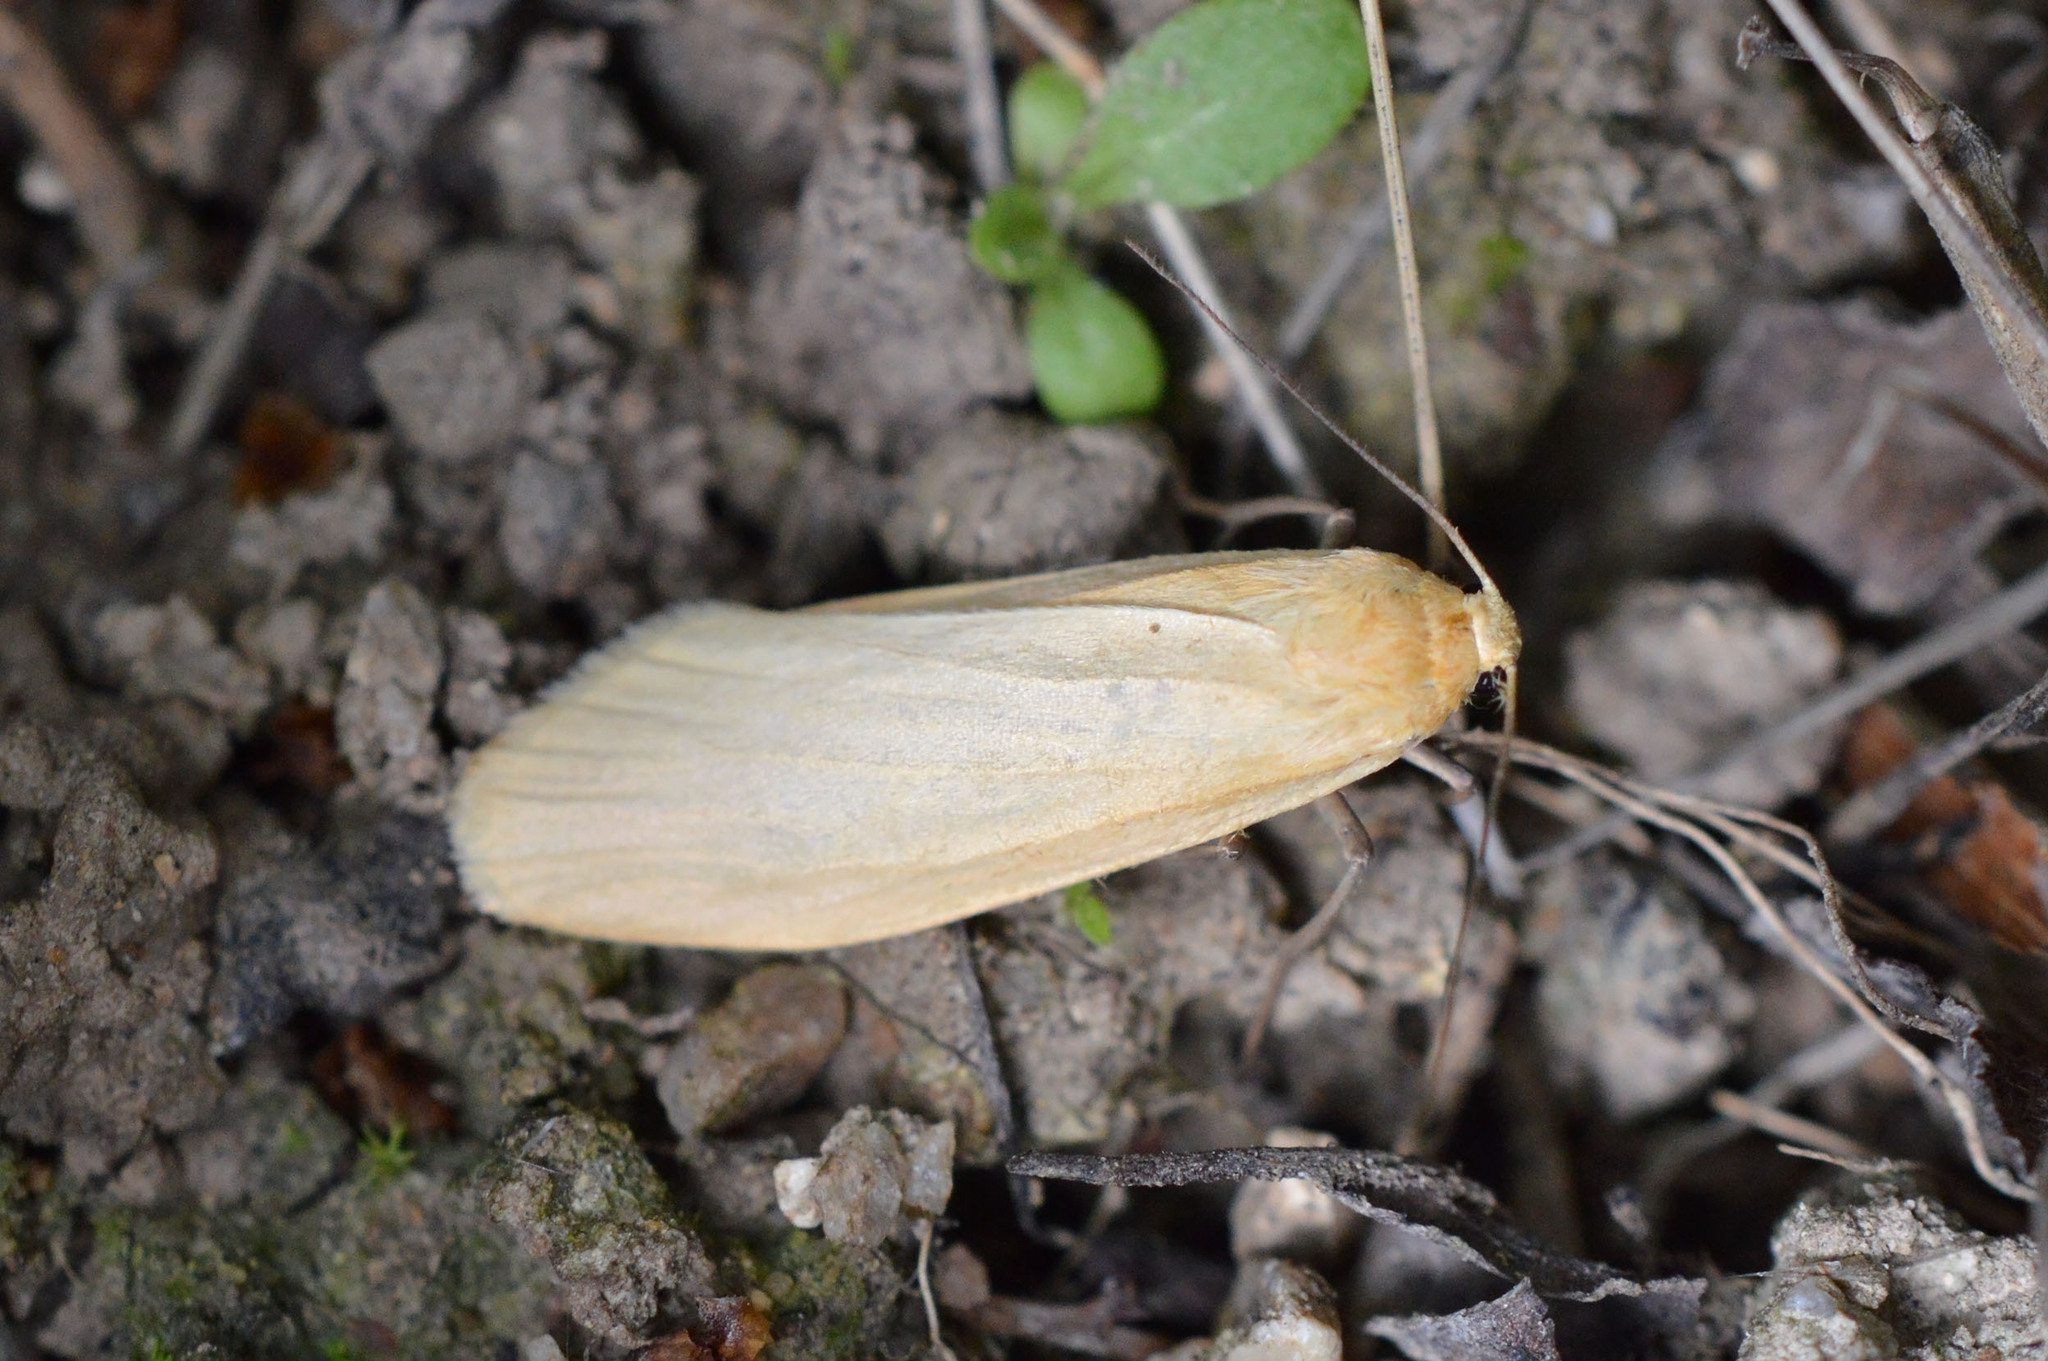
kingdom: Animalia
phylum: Arthropoda
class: Insecta
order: Lepidoptera
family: Erebidae
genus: Wittia
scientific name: Wittia sororcula
